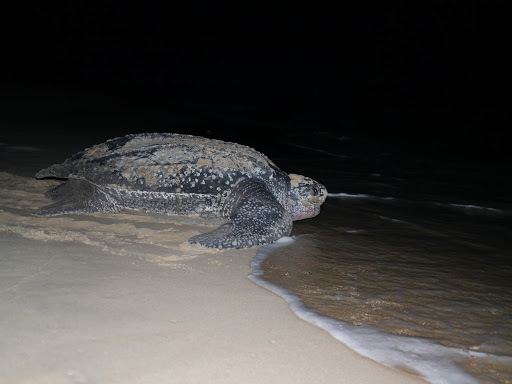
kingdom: Animalia
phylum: Chordata
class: Testudines
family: Dermochelyidae
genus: Dermochelys
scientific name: Dermochelys coriacea
